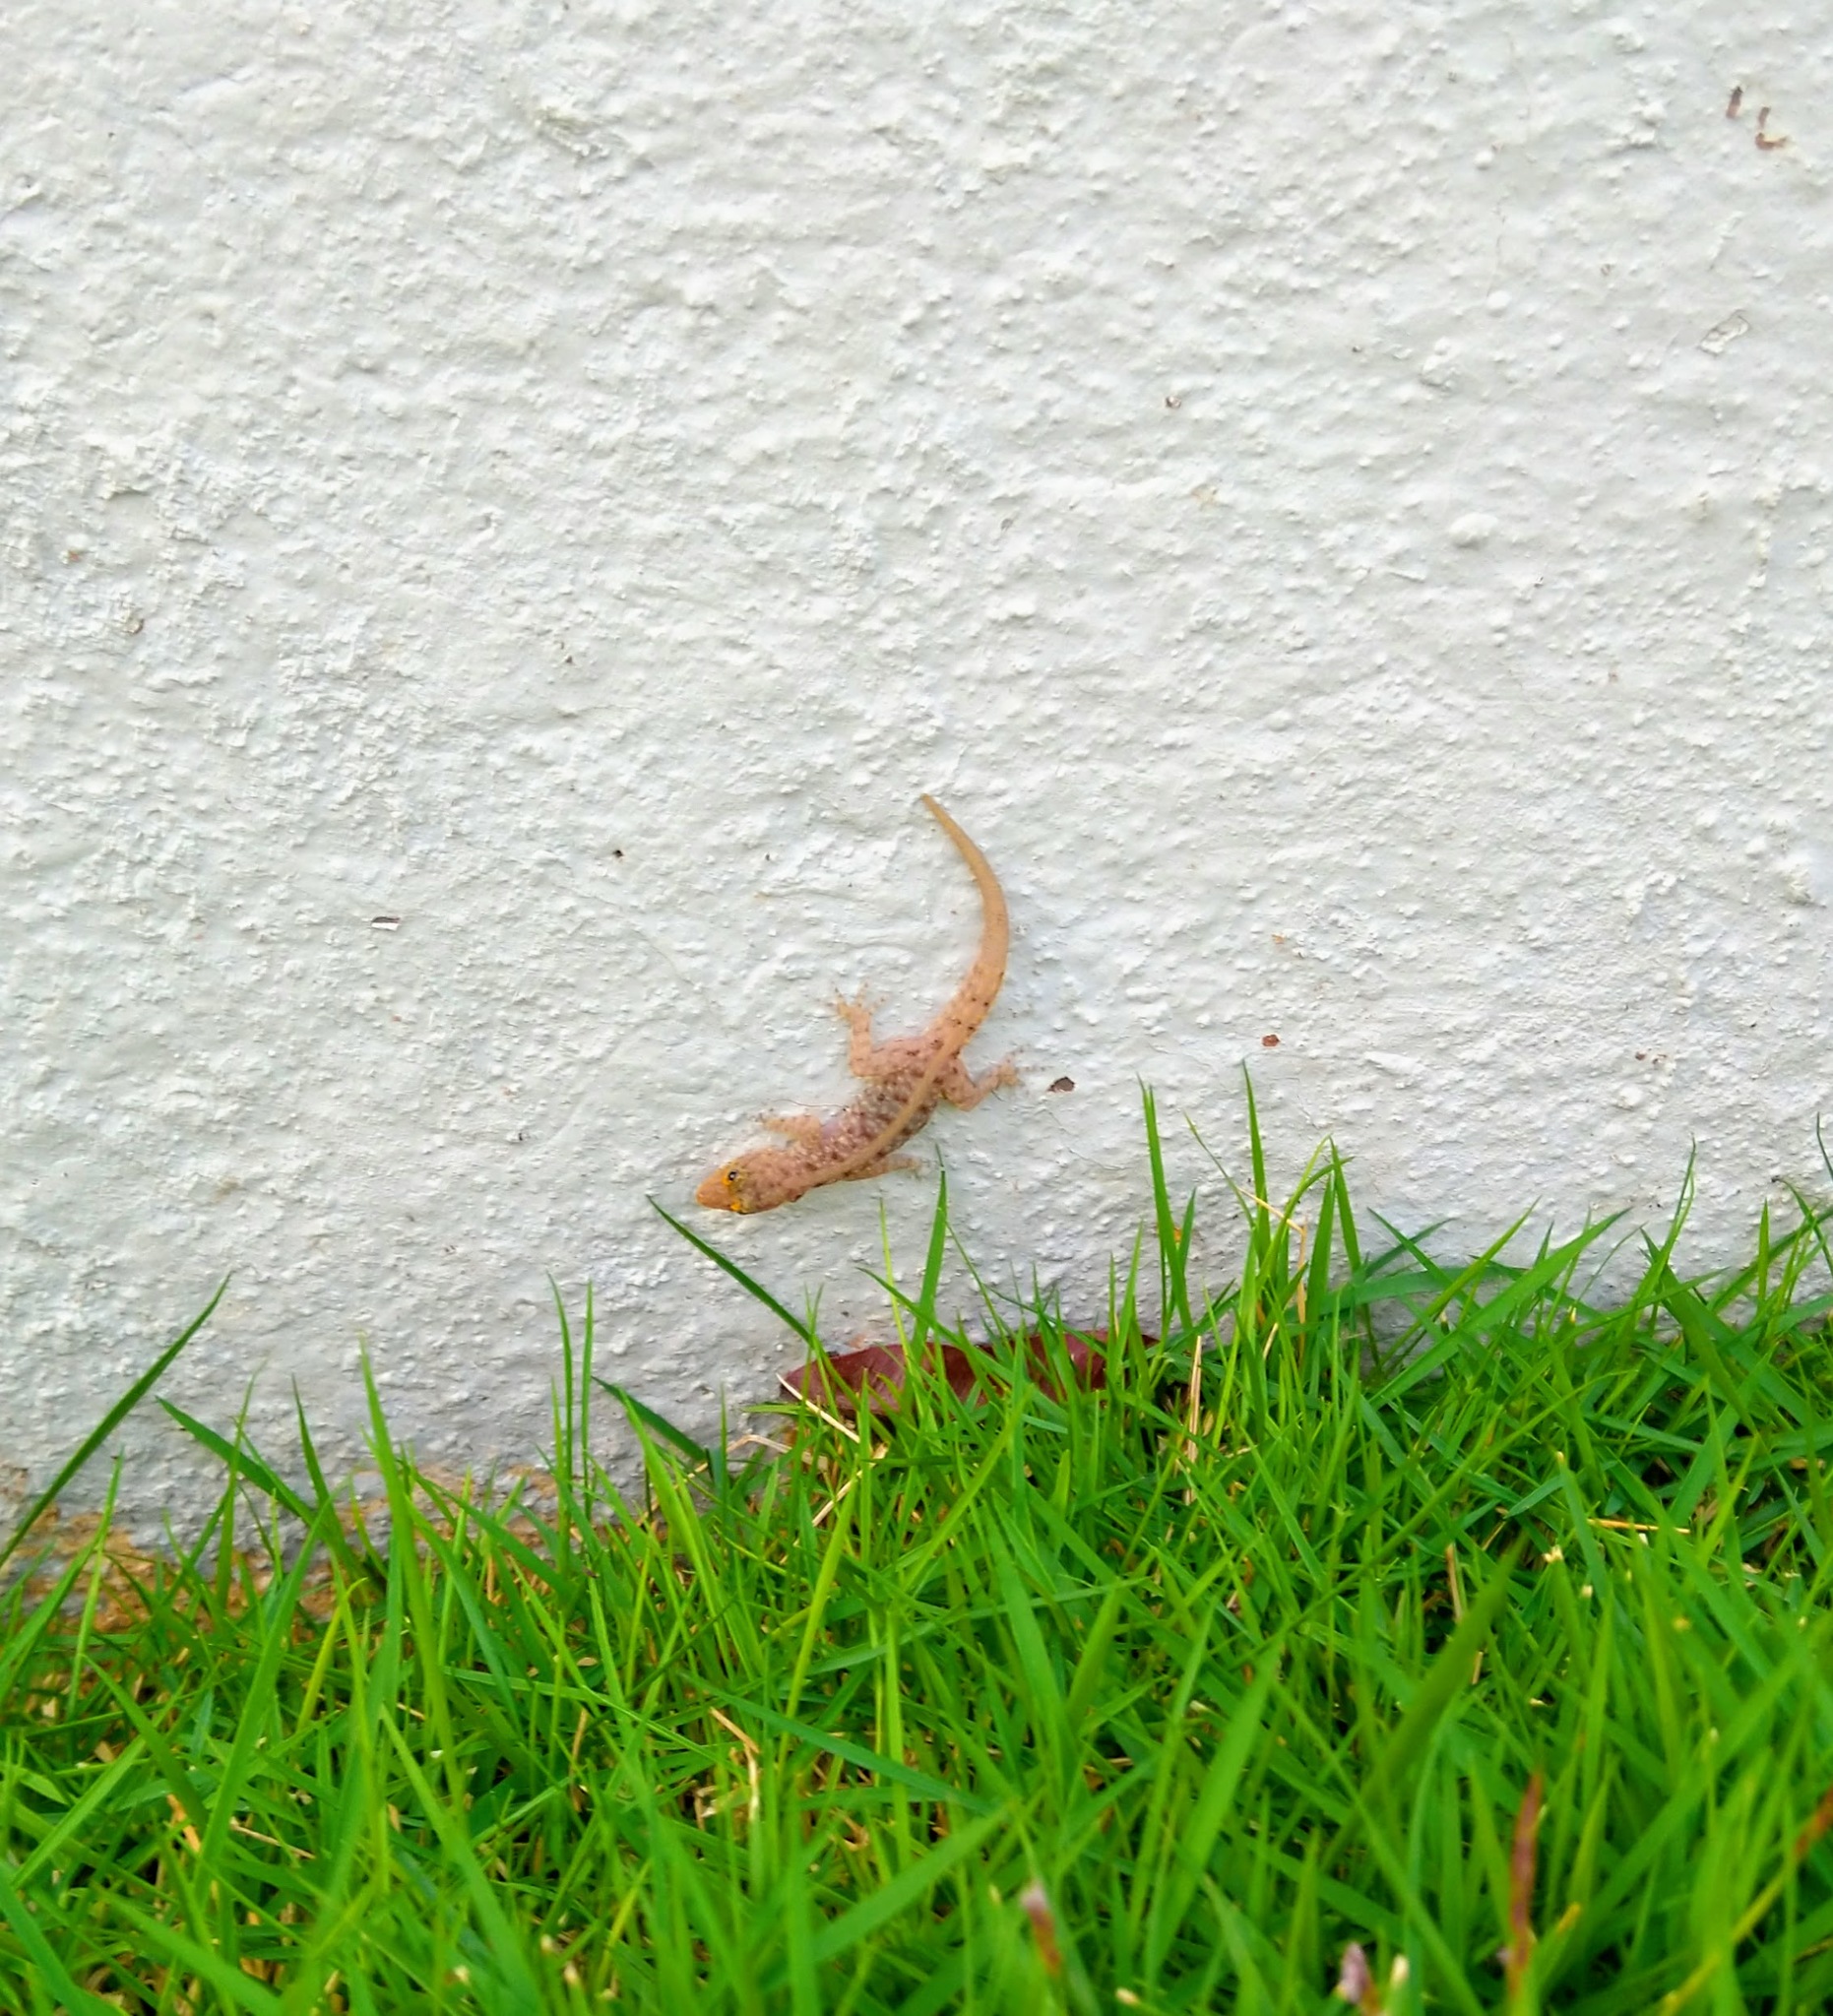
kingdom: Animalia
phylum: Chordata
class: Squamata
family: Gekkonidae
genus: Cnemaspis
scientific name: Cnemaspis mysoriensis
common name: Mysore day gecko
